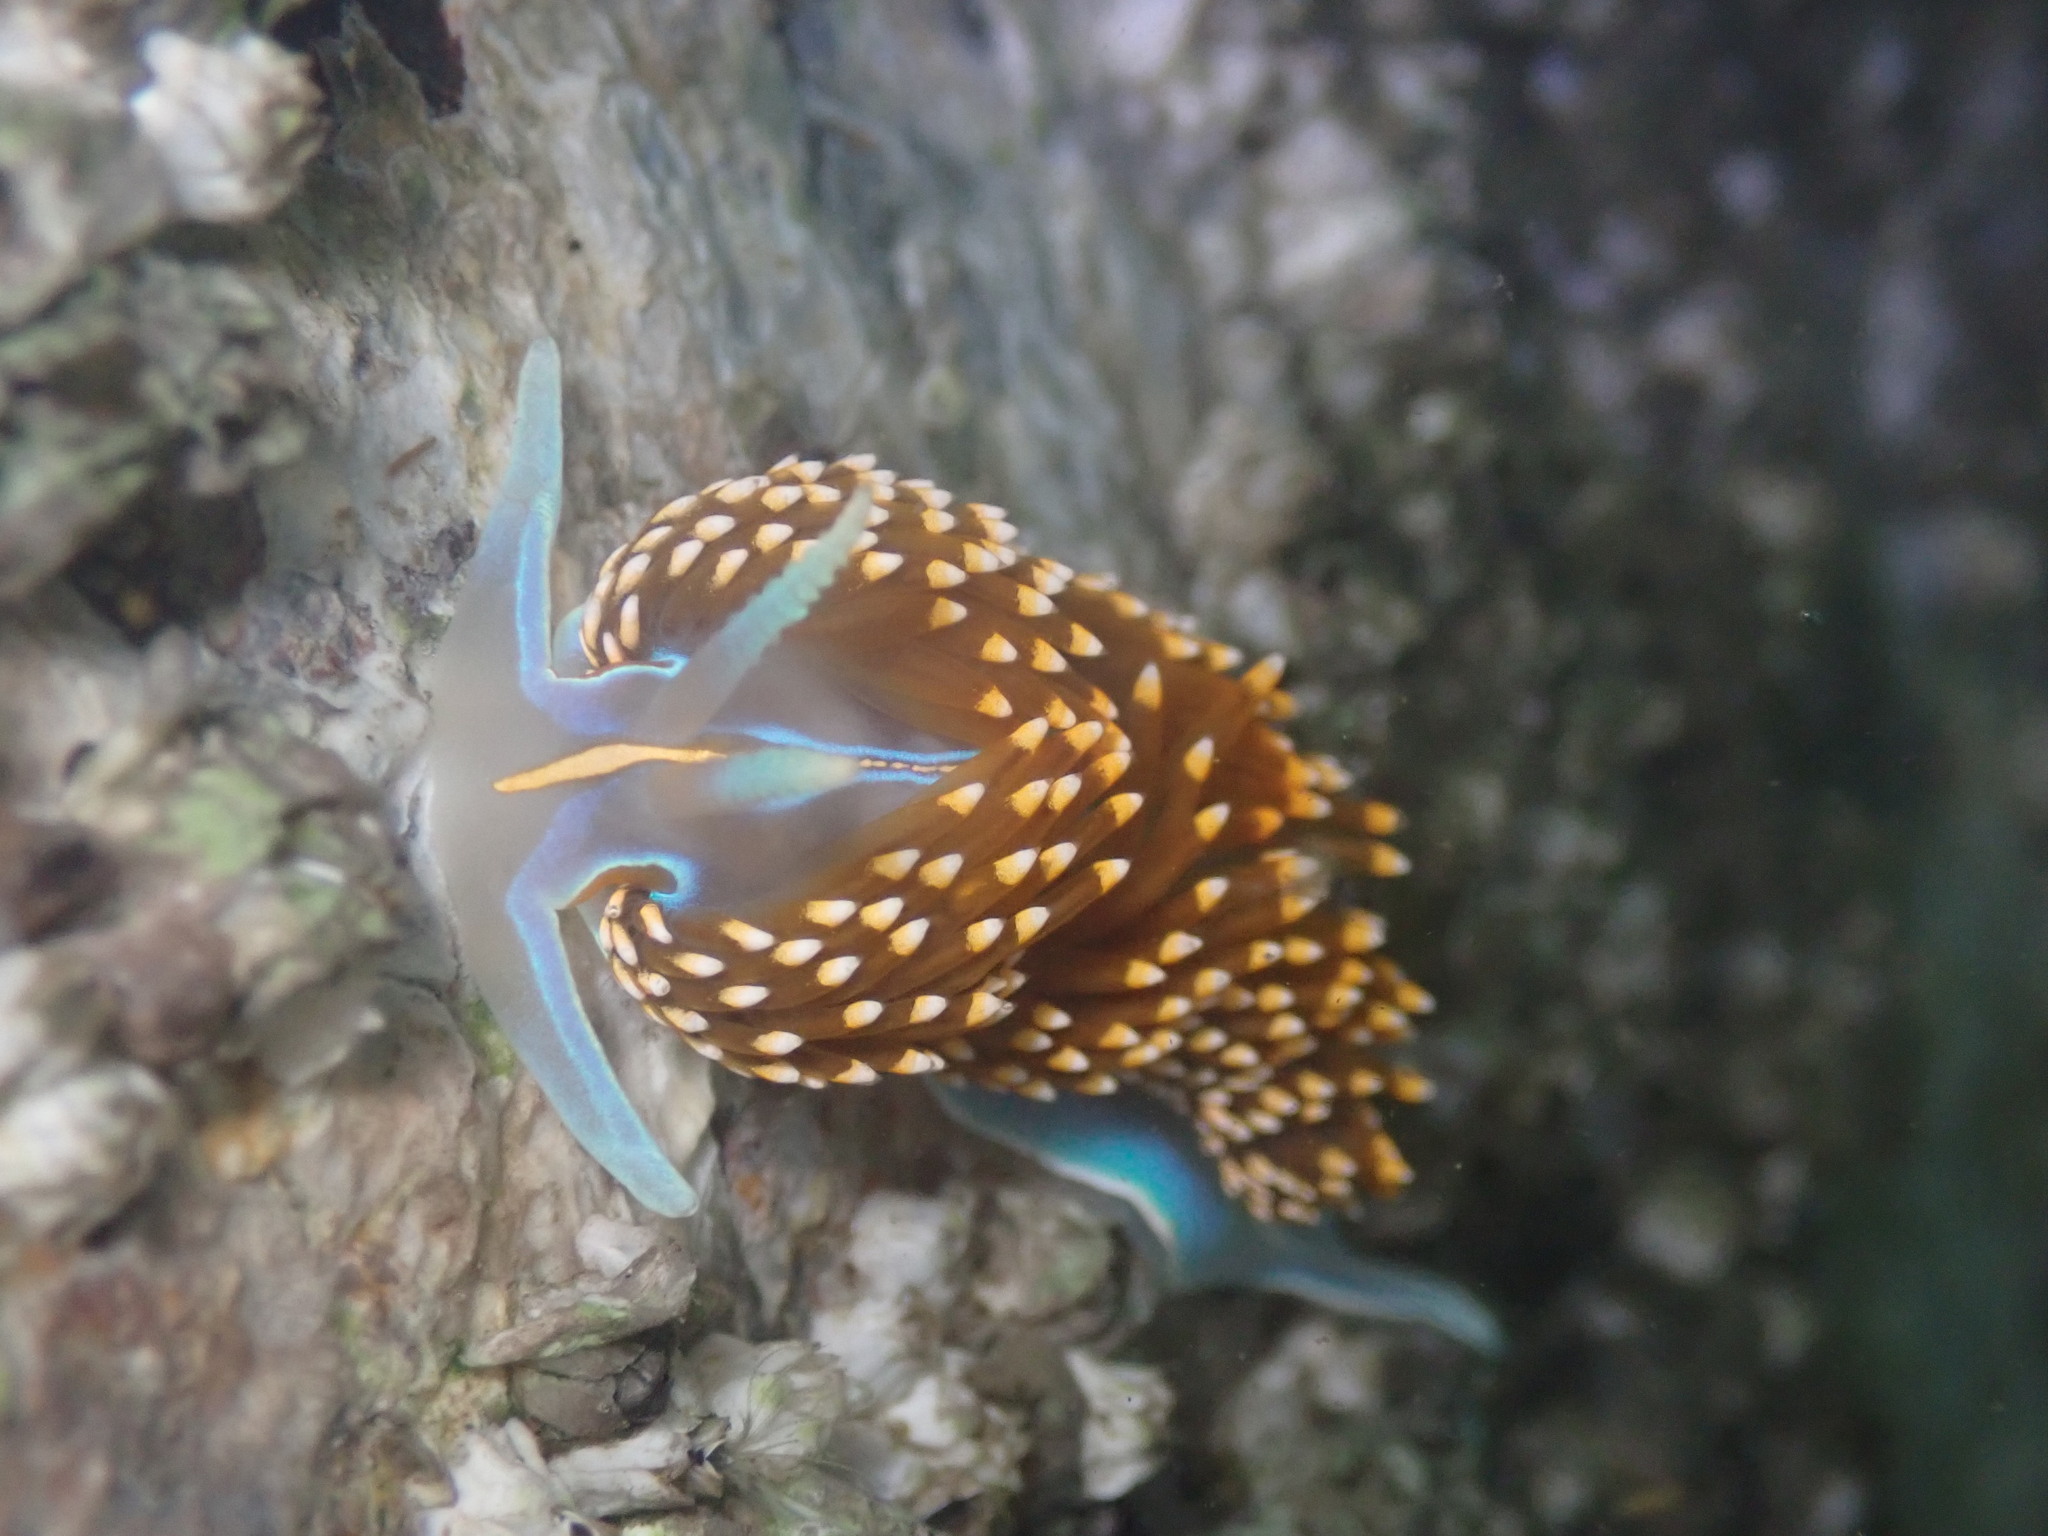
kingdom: Animalia
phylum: Mollusca
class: Gastropoda
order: Nudibranchia
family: Myrrhinidae
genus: Hermissenda
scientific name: Hermissenda opalescens
